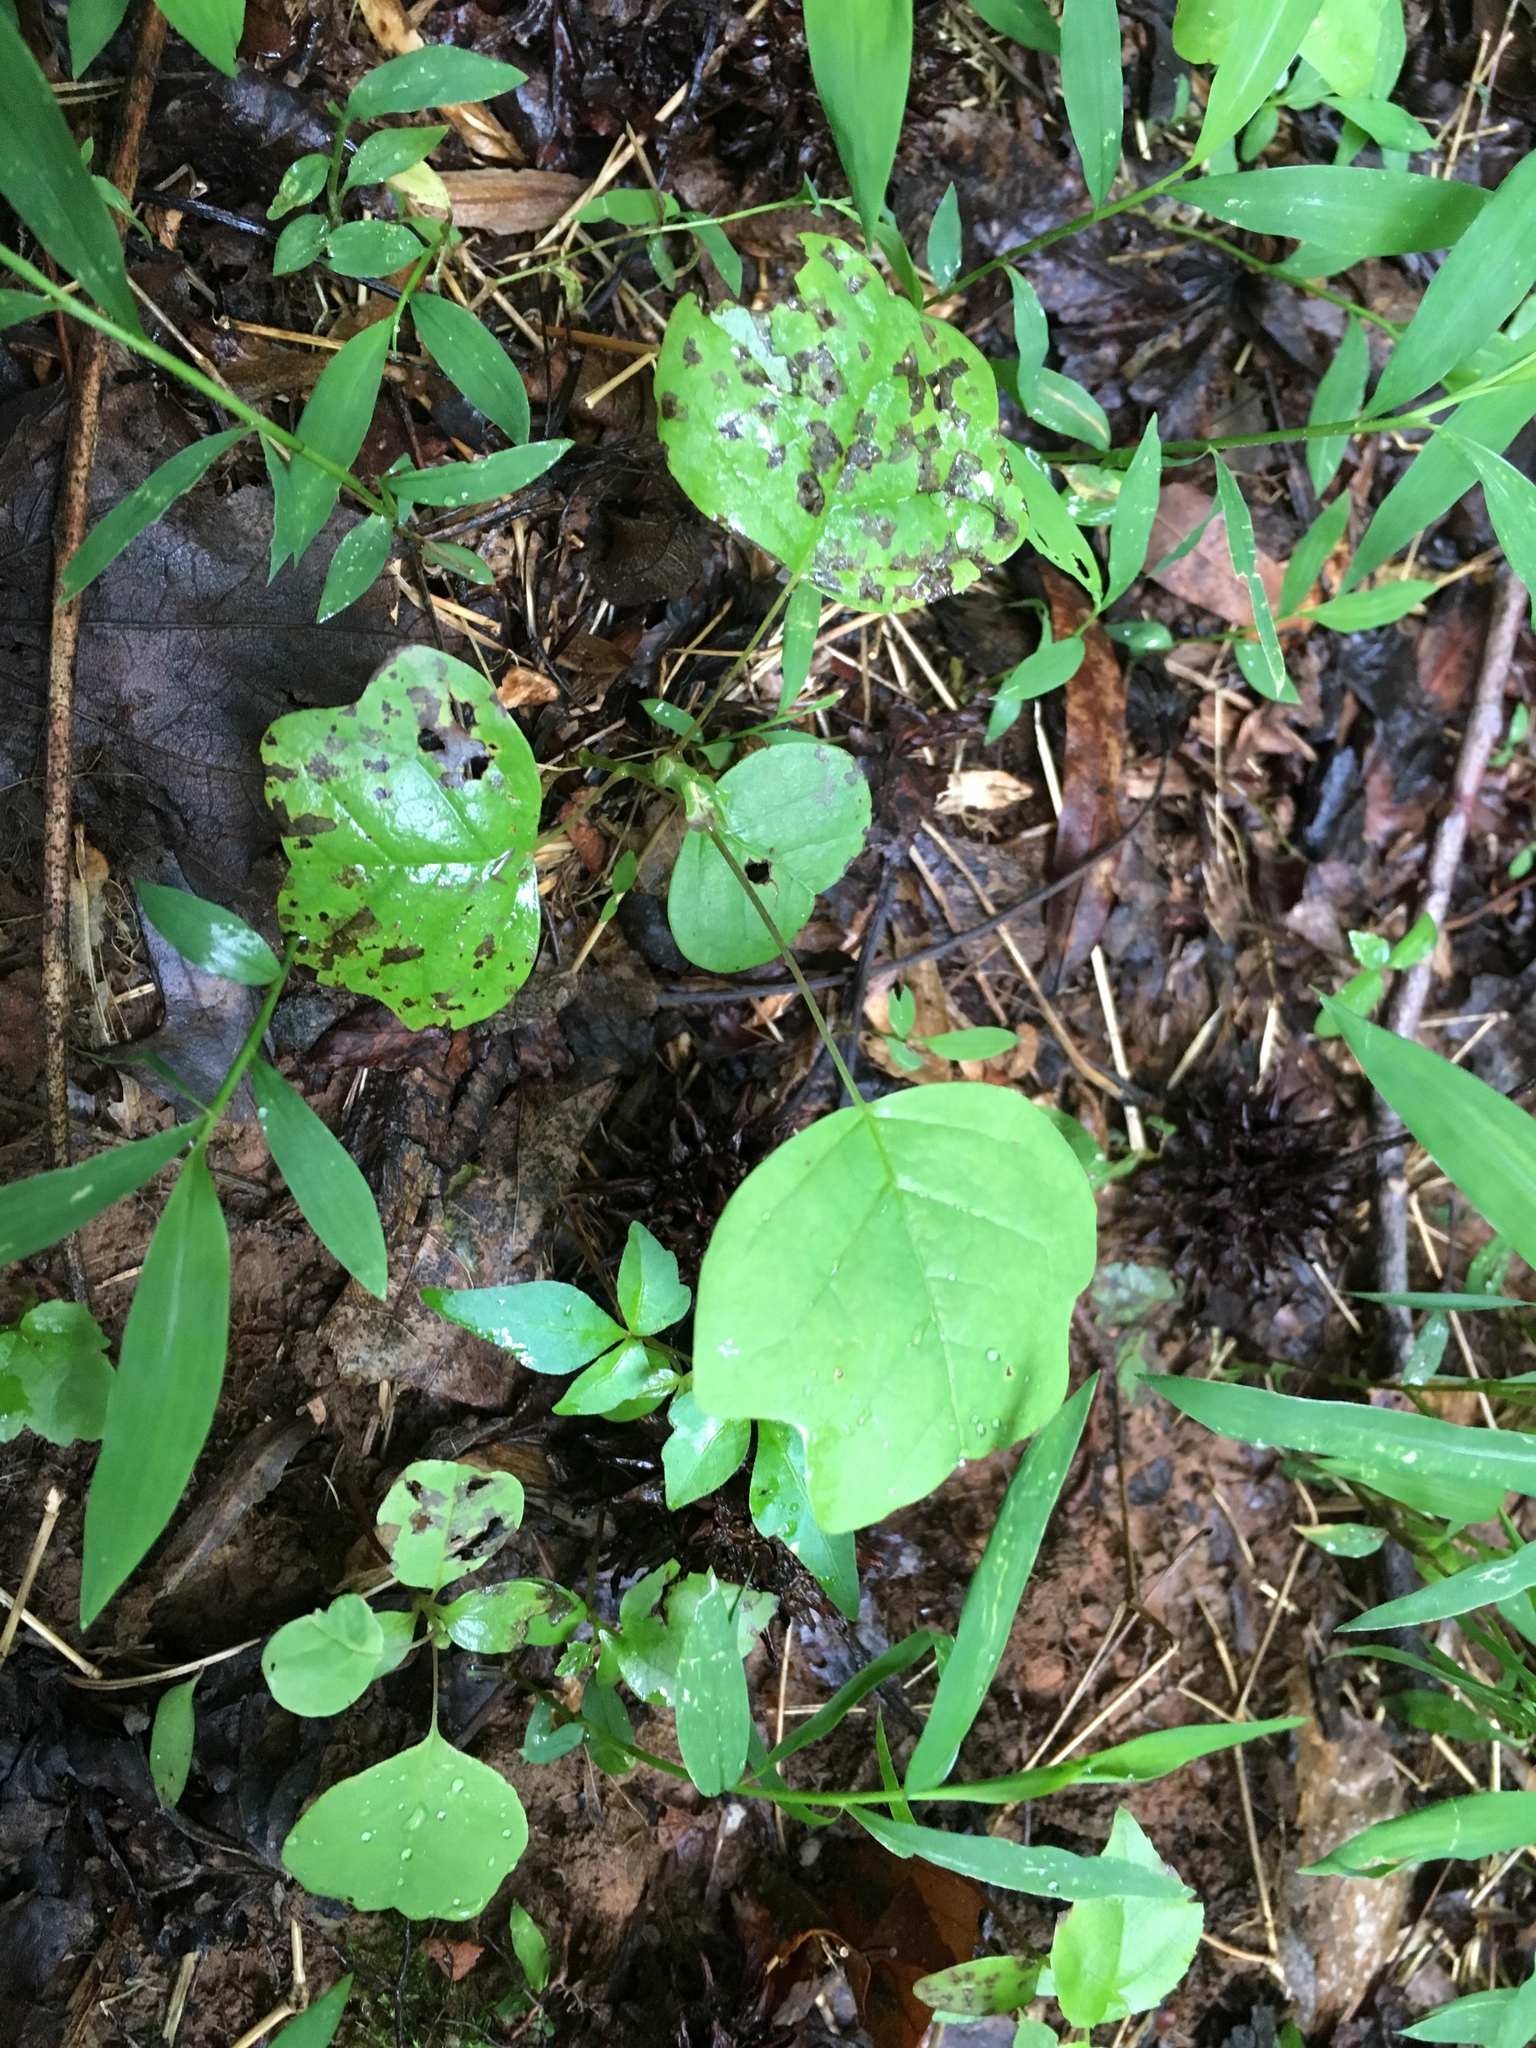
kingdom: Plantae
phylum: Tracheophyta
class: Magnoliopsida
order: Magnoliales
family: Magnoliaceae
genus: Liriodendron
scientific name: Liriodendron tulipifera
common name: Tulip tree
